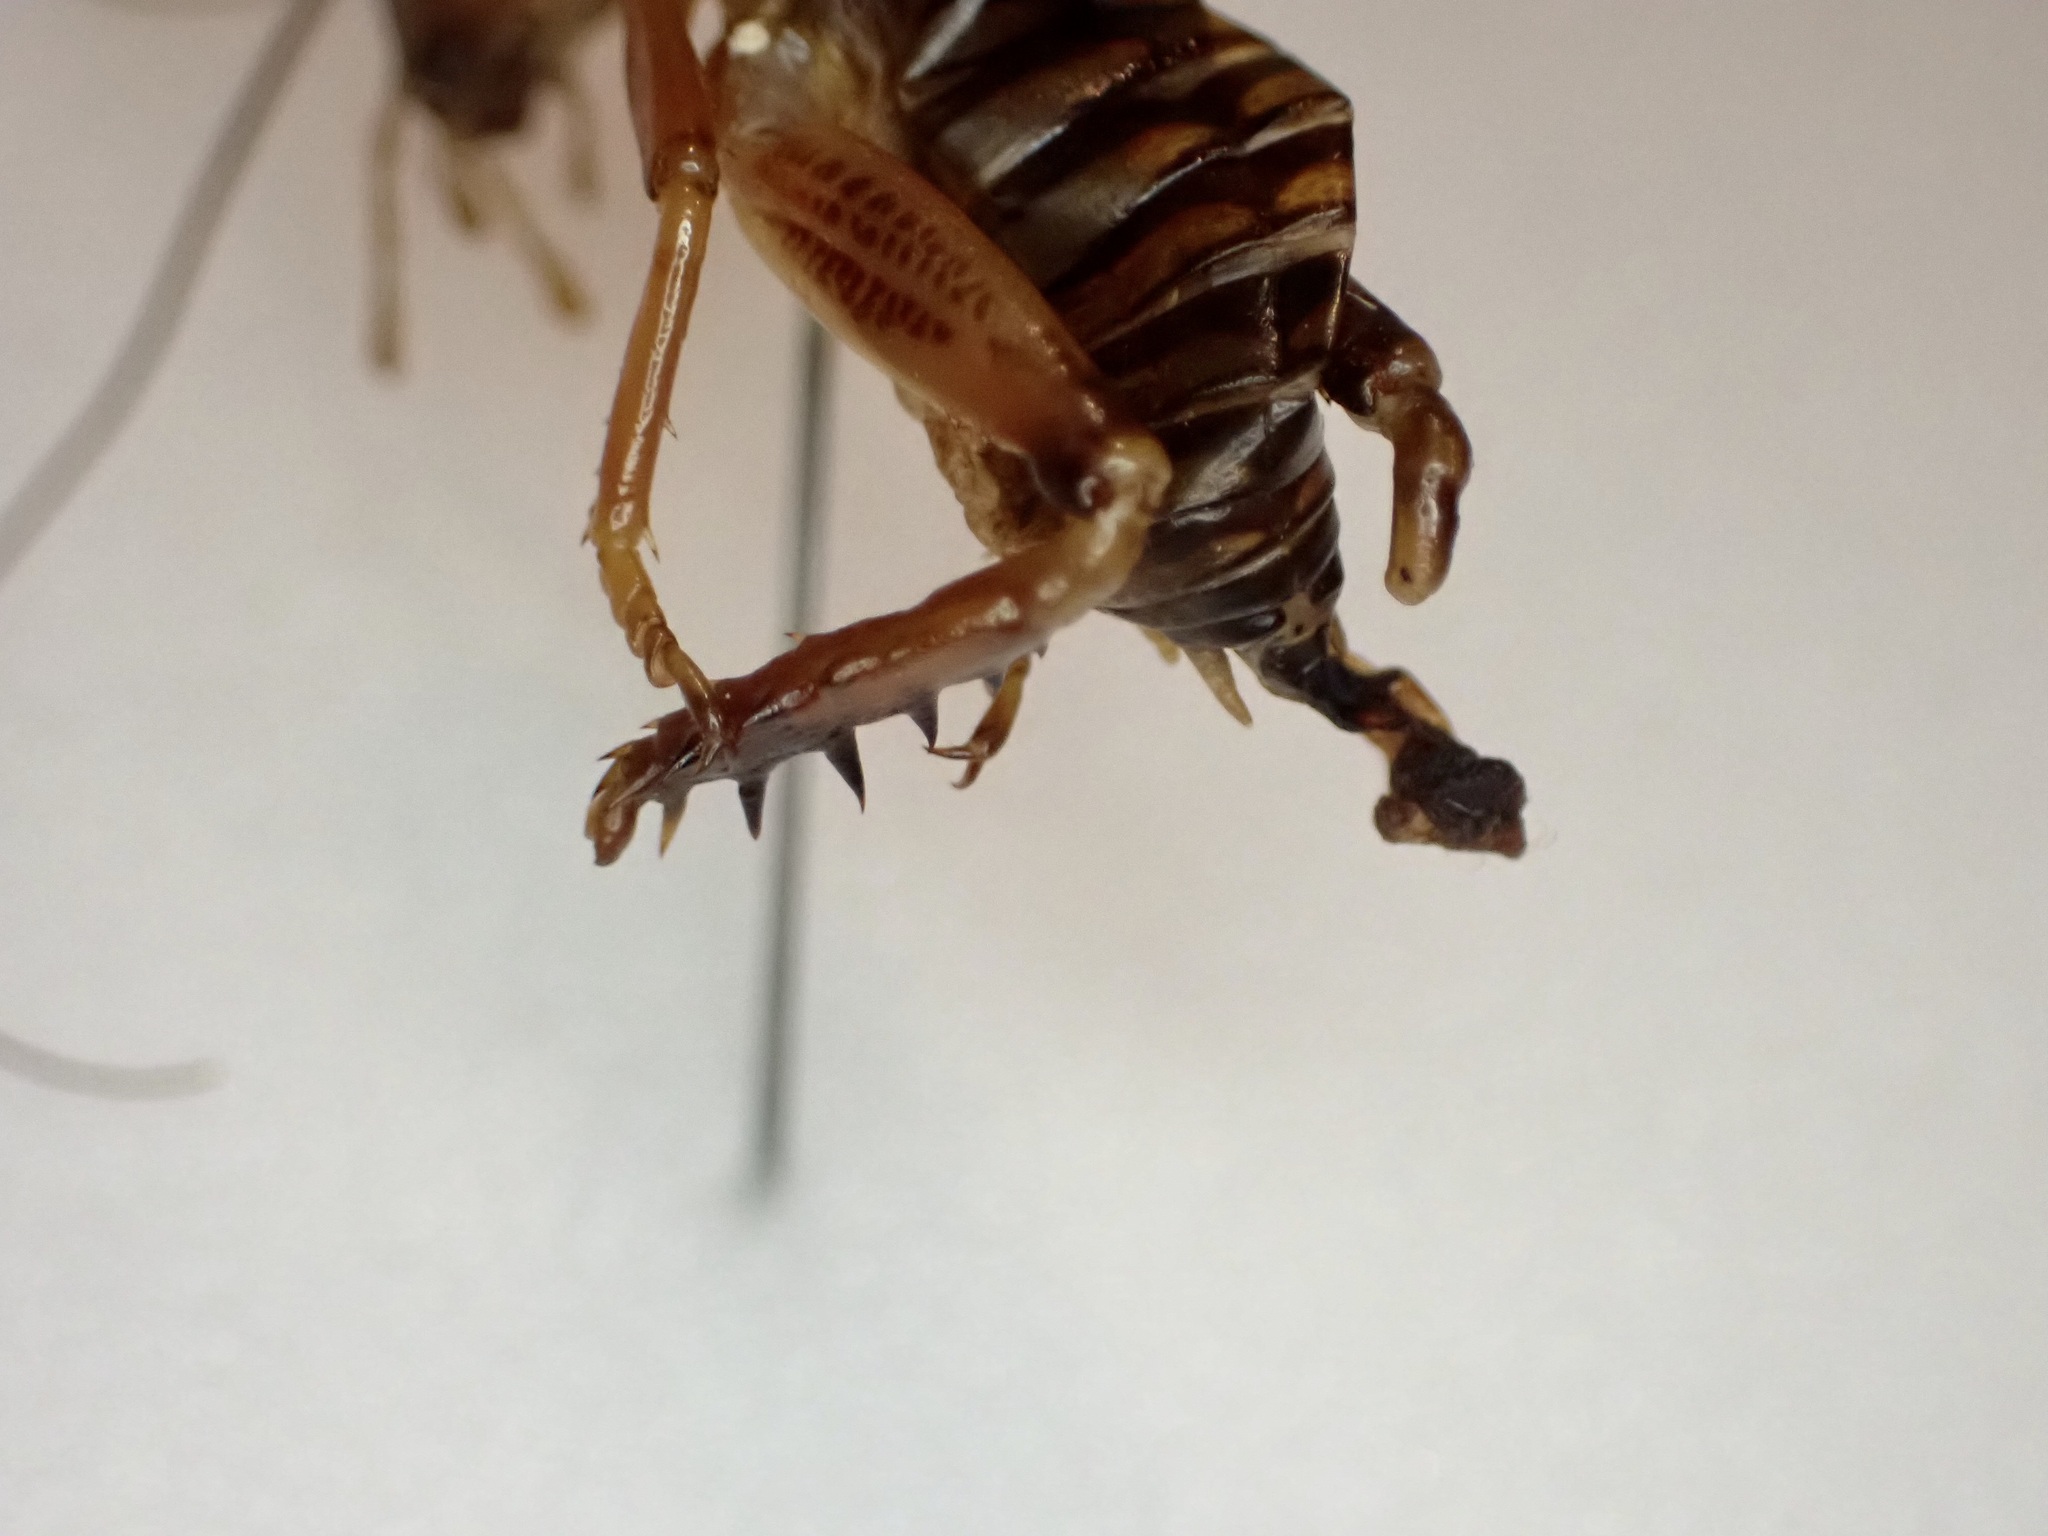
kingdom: Animalia
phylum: Arthropoda
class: Insecta
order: Orthoptera
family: Anostostomatidae
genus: Hemideina
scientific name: Hemideina maori
